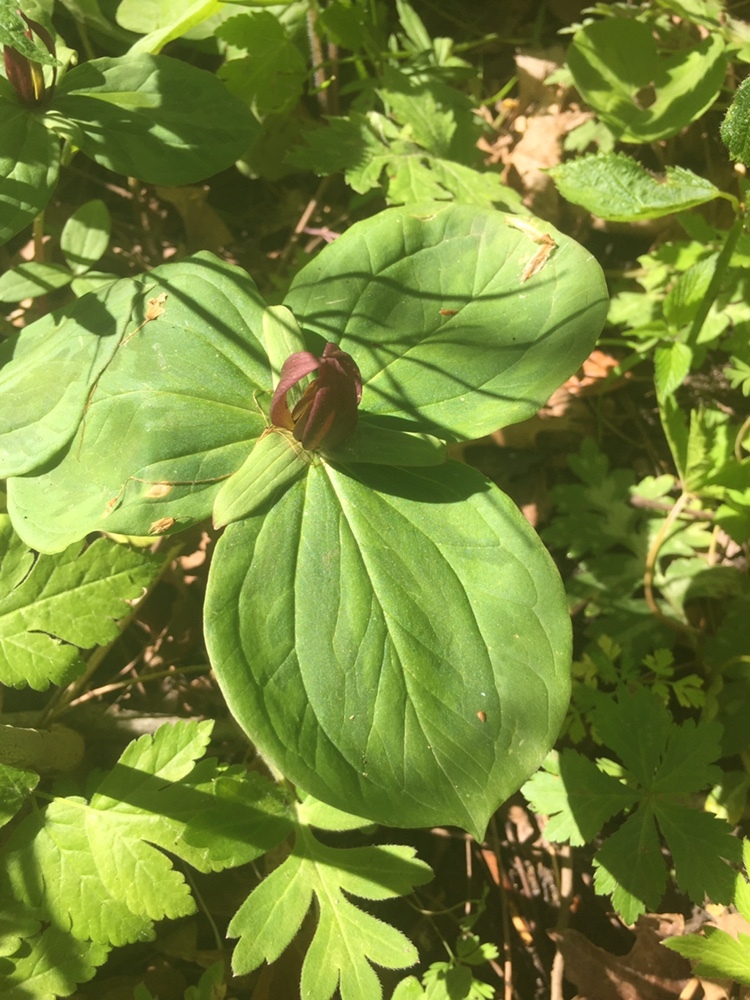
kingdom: Plantae
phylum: Tracheophyta
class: Liliopsida
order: Liliales
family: Melanthiaceae
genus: Trillium
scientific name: Trillium sessile
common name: Sessile trillium
